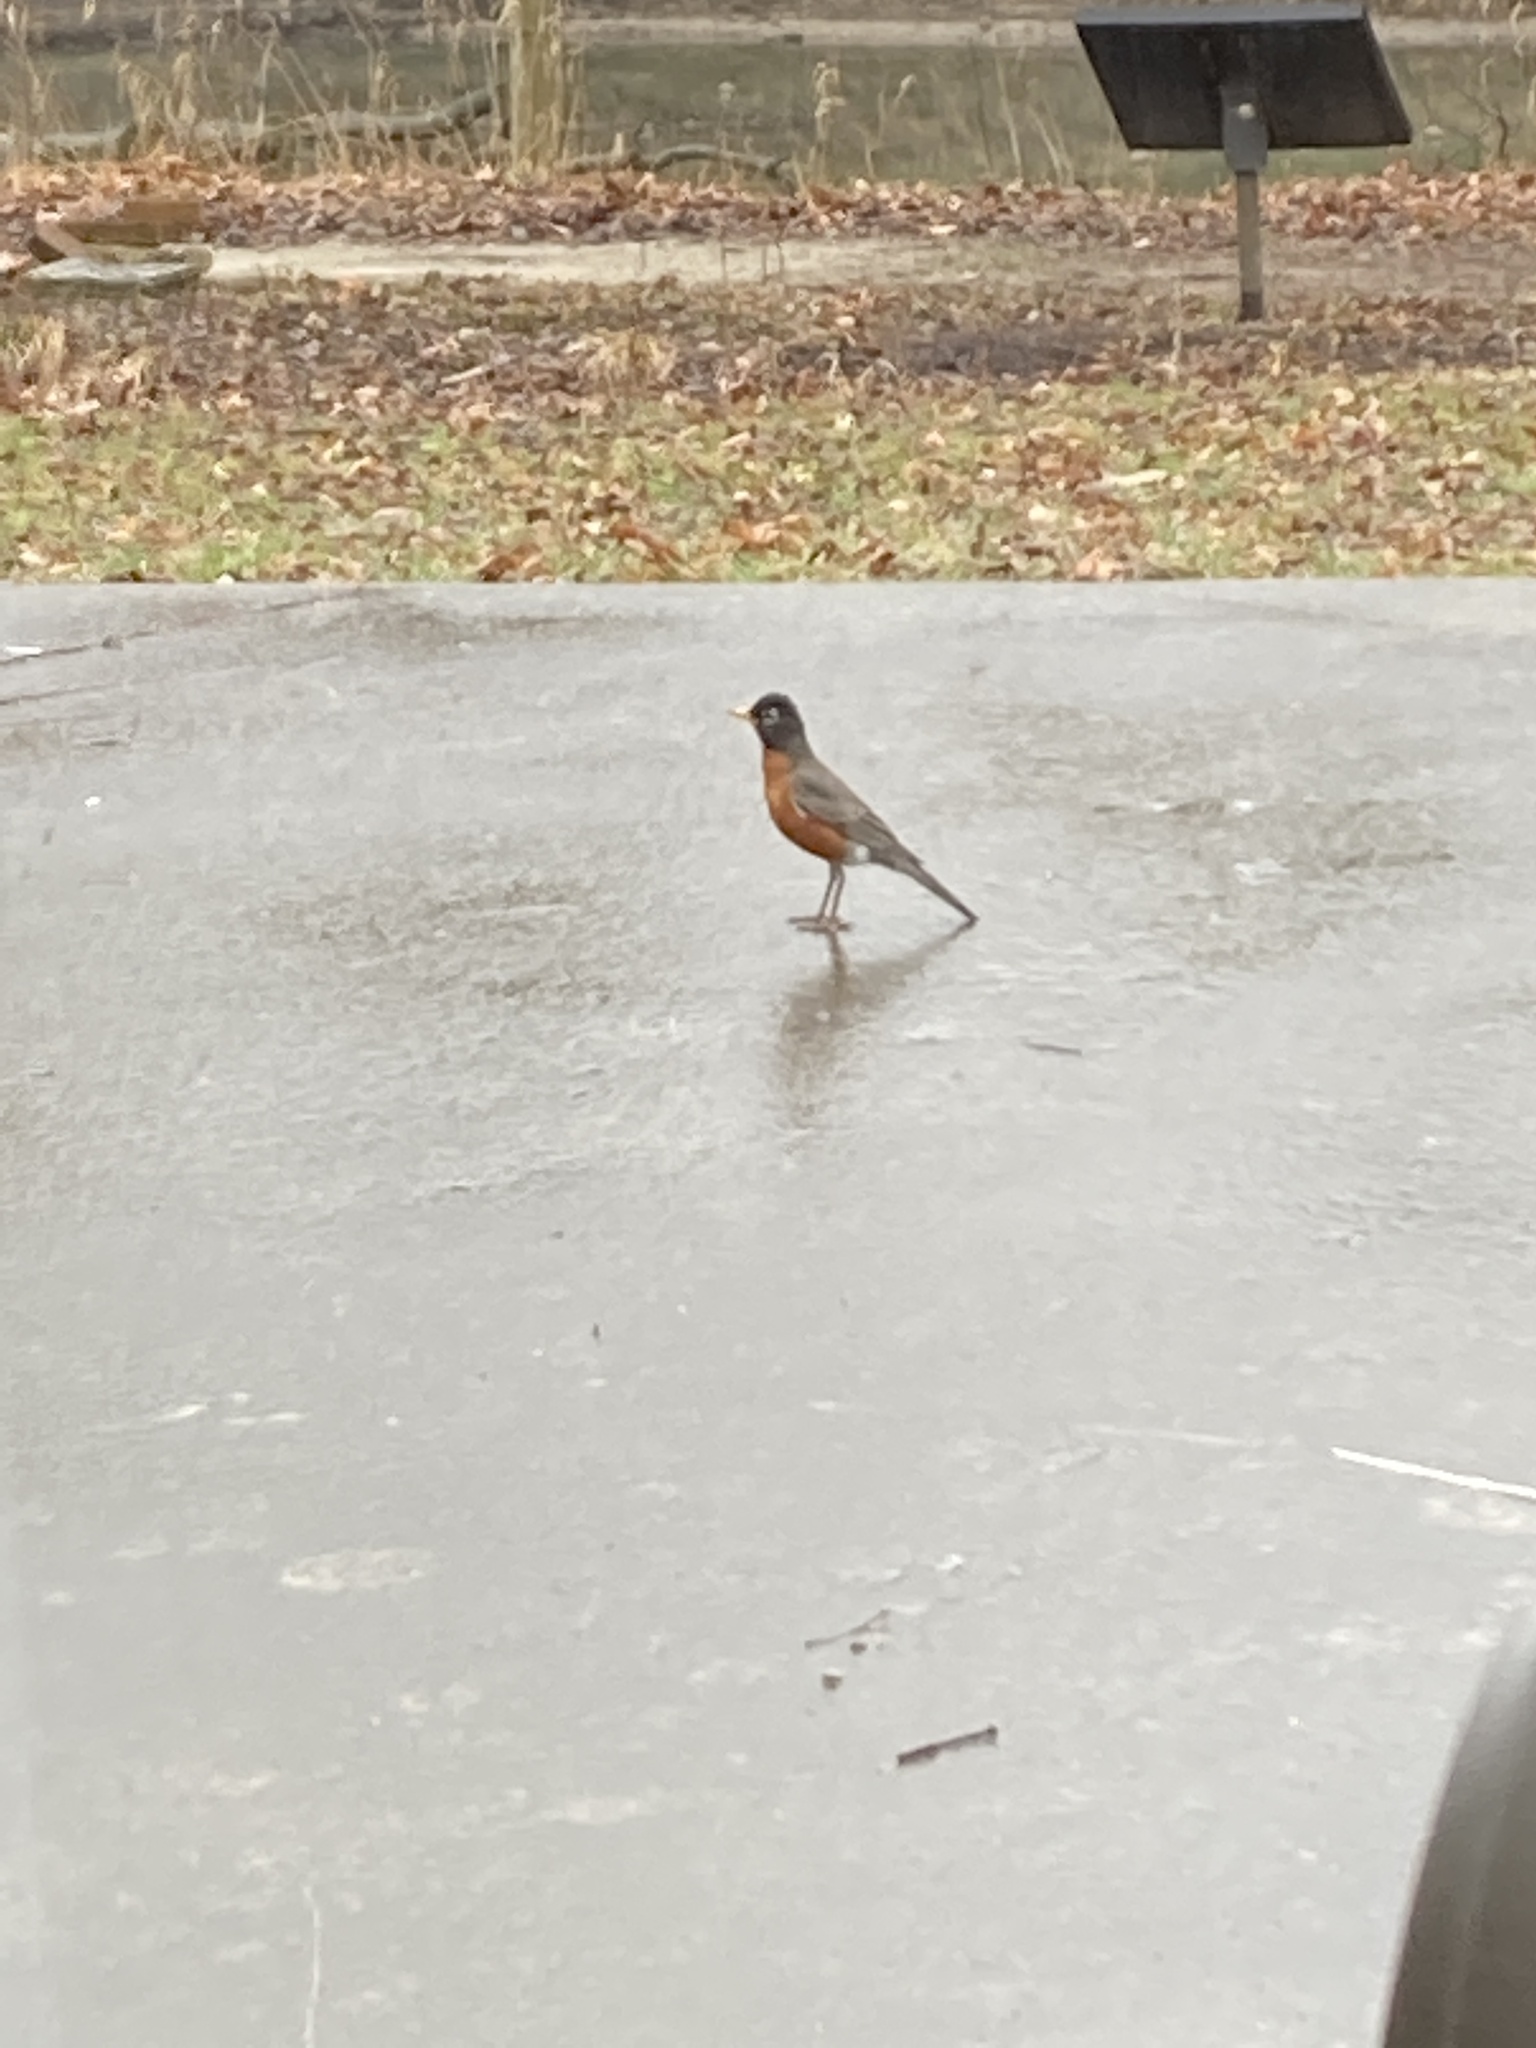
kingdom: Animalia
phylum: Chordata
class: Aves
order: Passeriformes
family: Turdidae
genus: Turdus
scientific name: Turdus migratorius
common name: American robin
